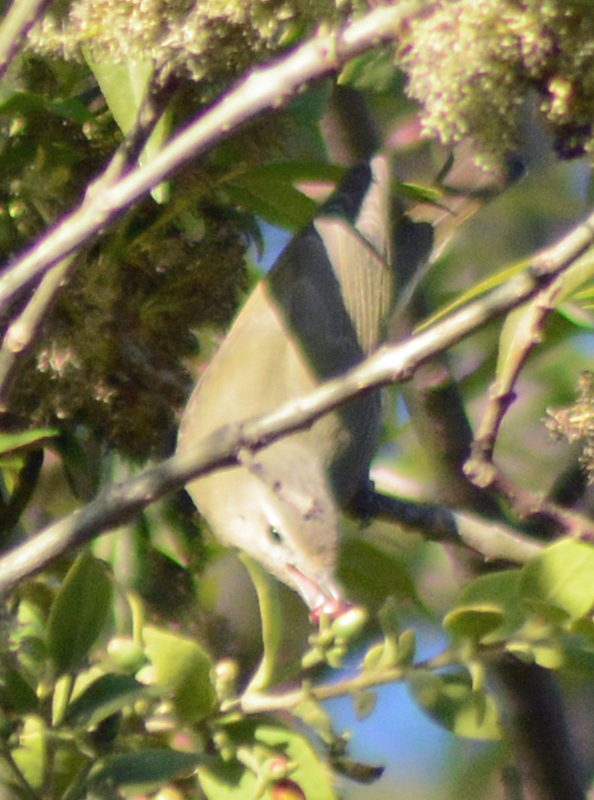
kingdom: Animalia
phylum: Chordata
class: Aves
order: Passeriformes
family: Vireonidae
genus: Vireo
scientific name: Vireo gilvus
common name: Warbling vireo
